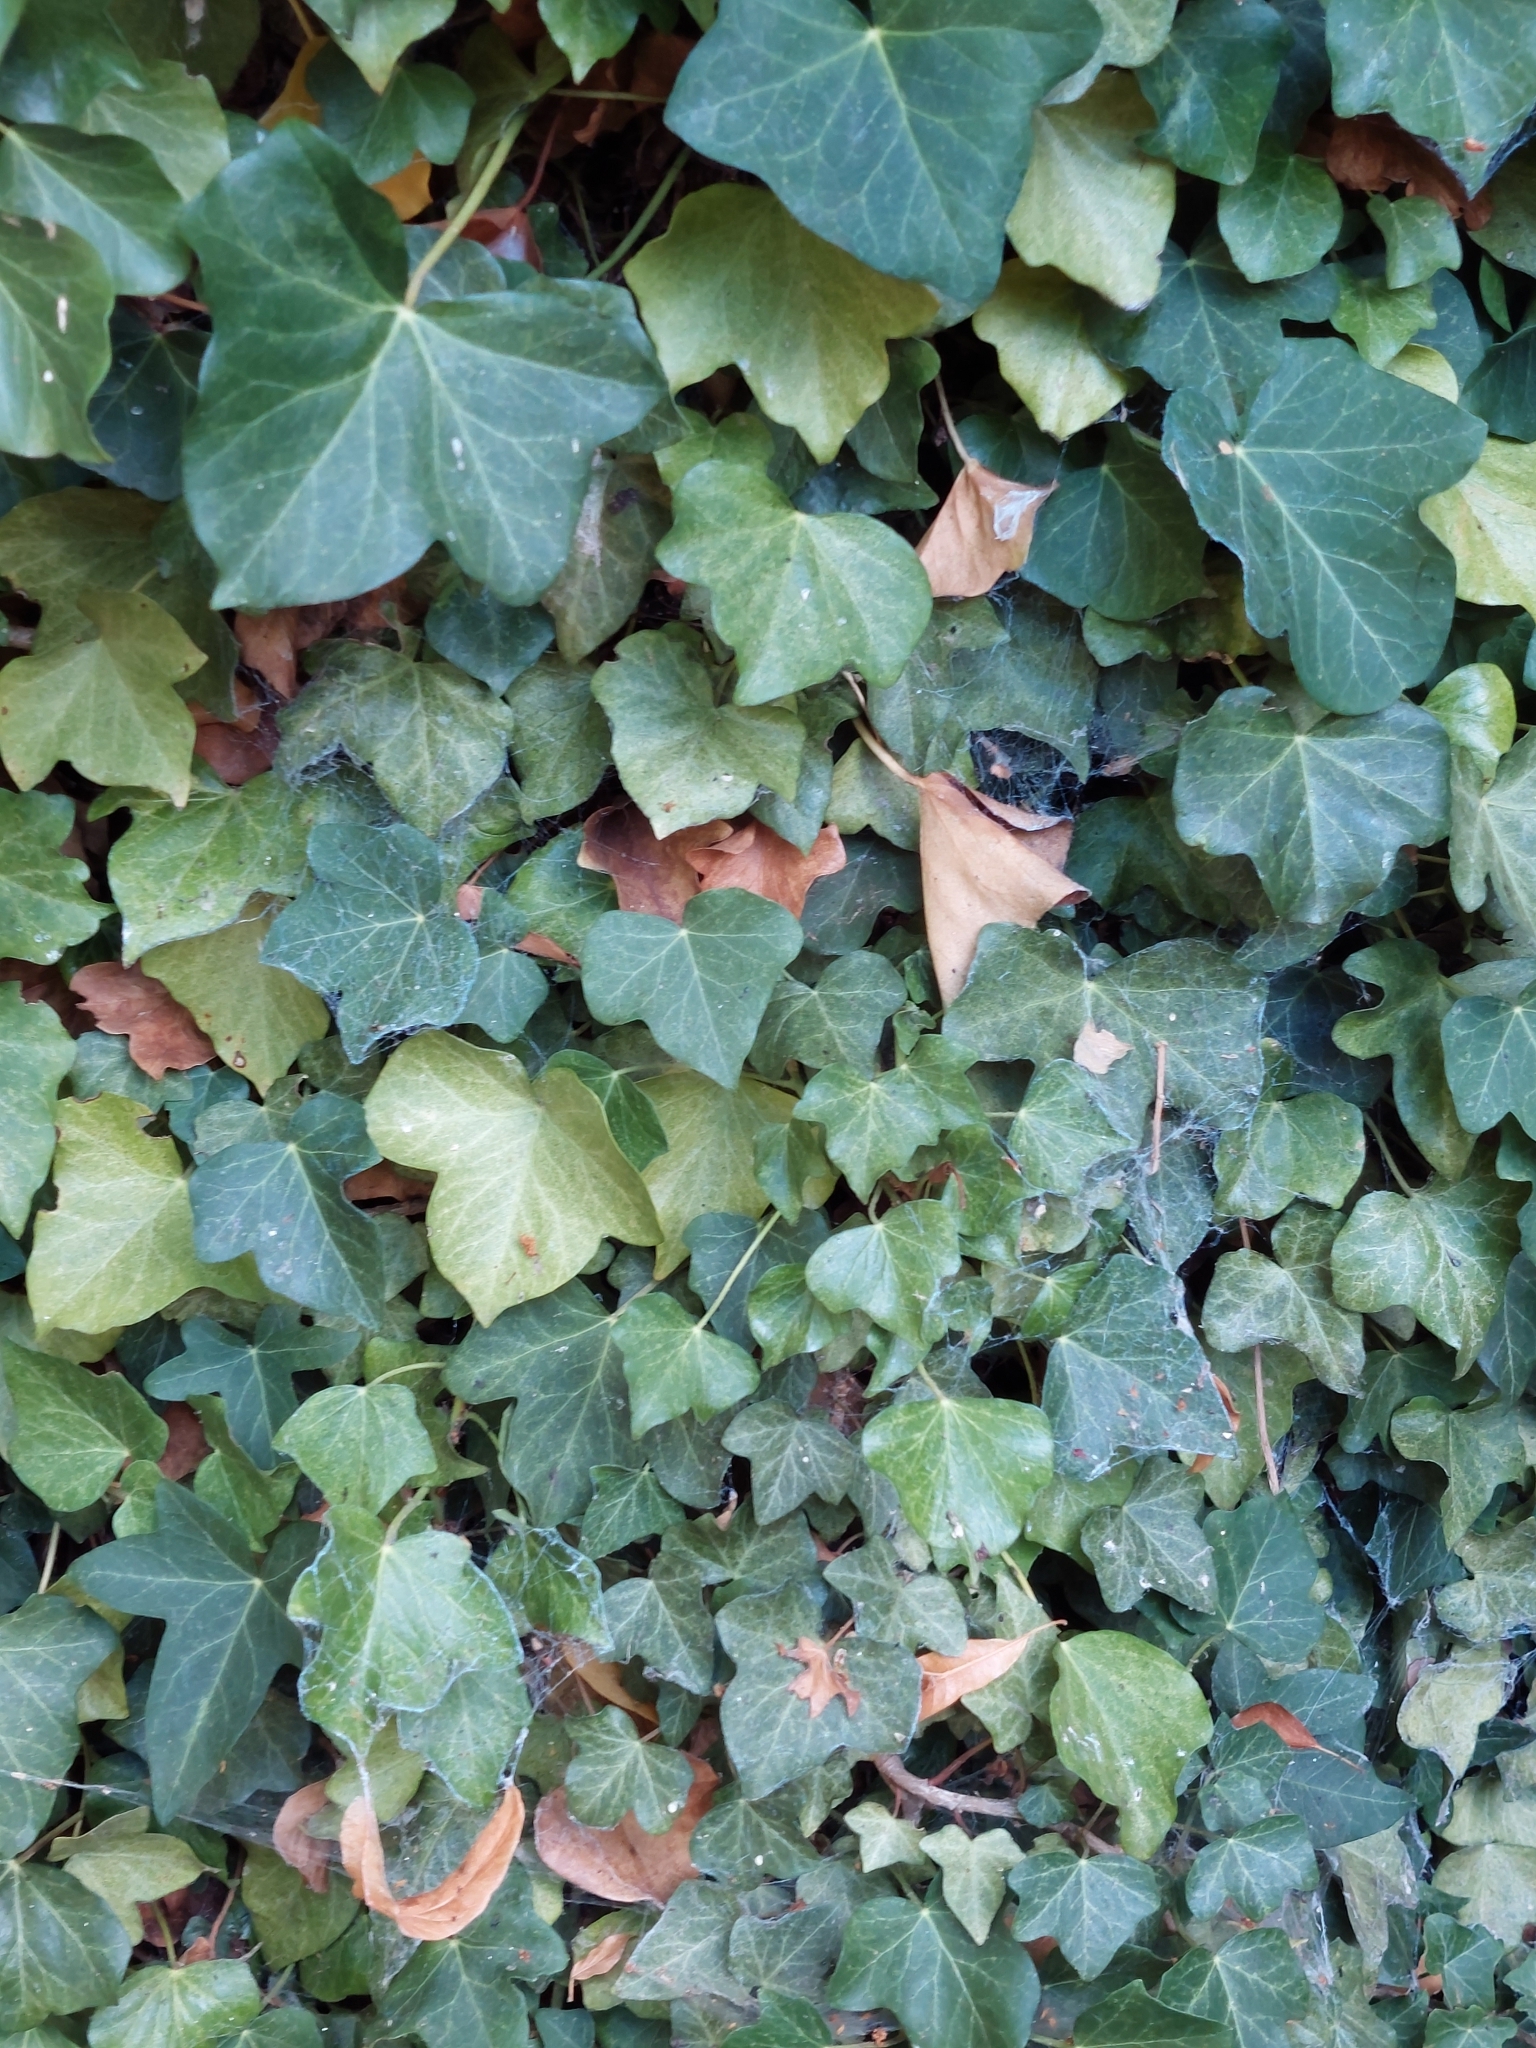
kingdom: Plantae
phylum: Tracheophyta
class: Magnoliopsida
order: Apiales
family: Araliaceae
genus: Hedera
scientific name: Hedera helix
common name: Ivy
